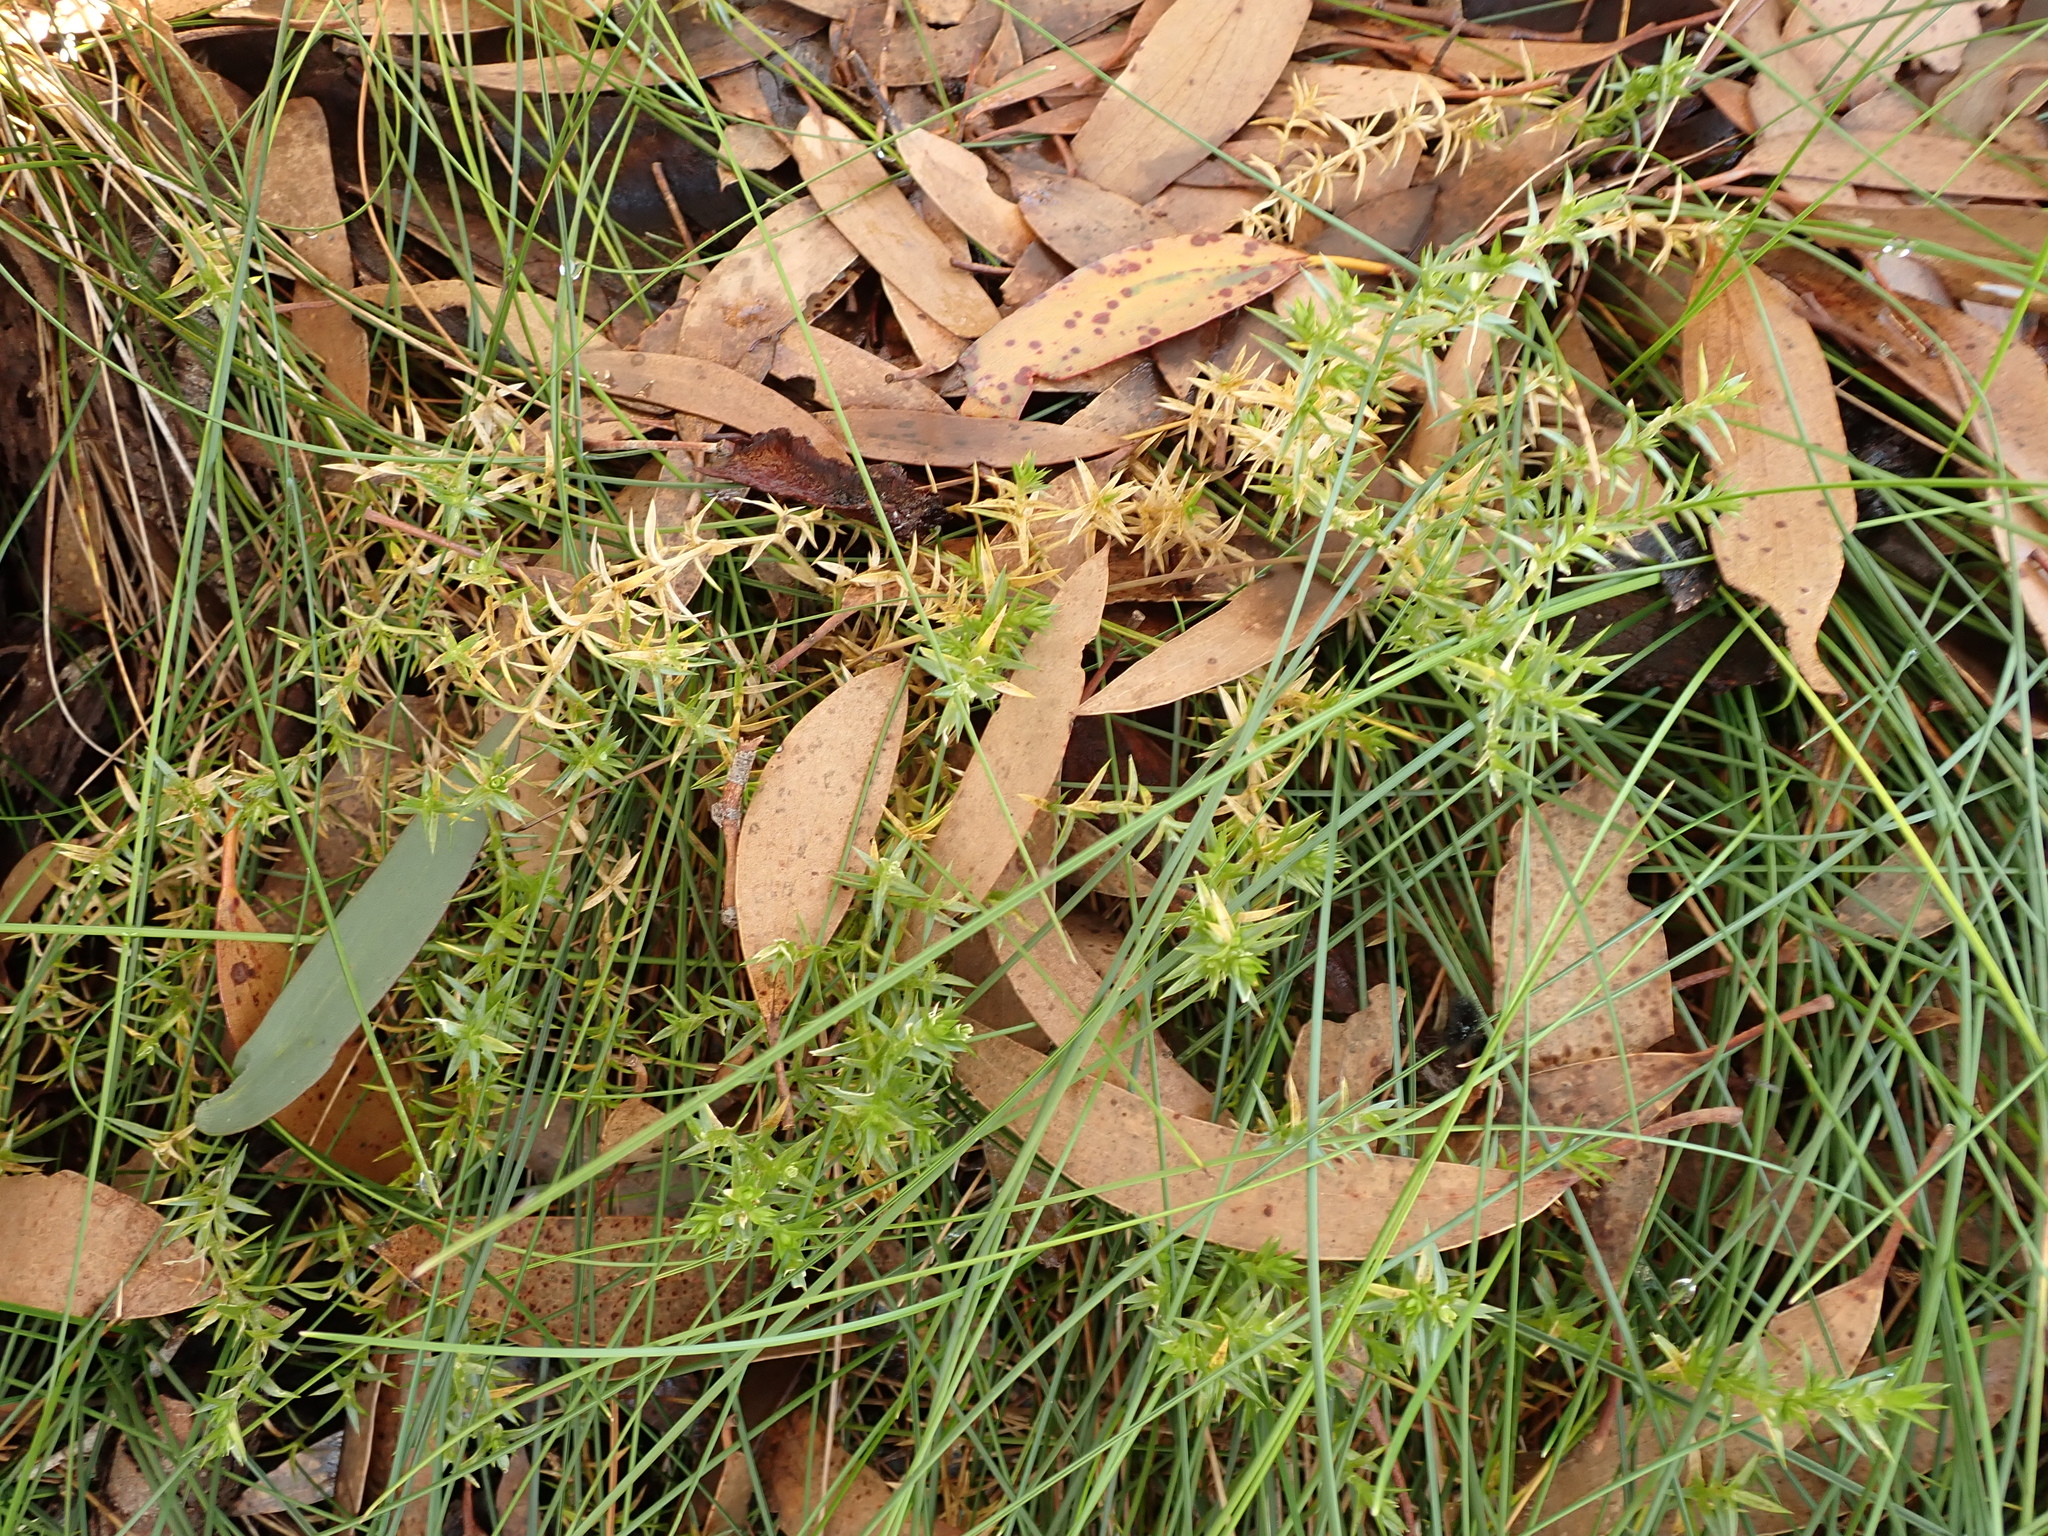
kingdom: Plantae
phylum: Tracheophyta
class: Magnoliopsida
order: Caryophyllales
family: Caryophyllaceae
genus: Stellaria
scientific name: Stellaria pungens
